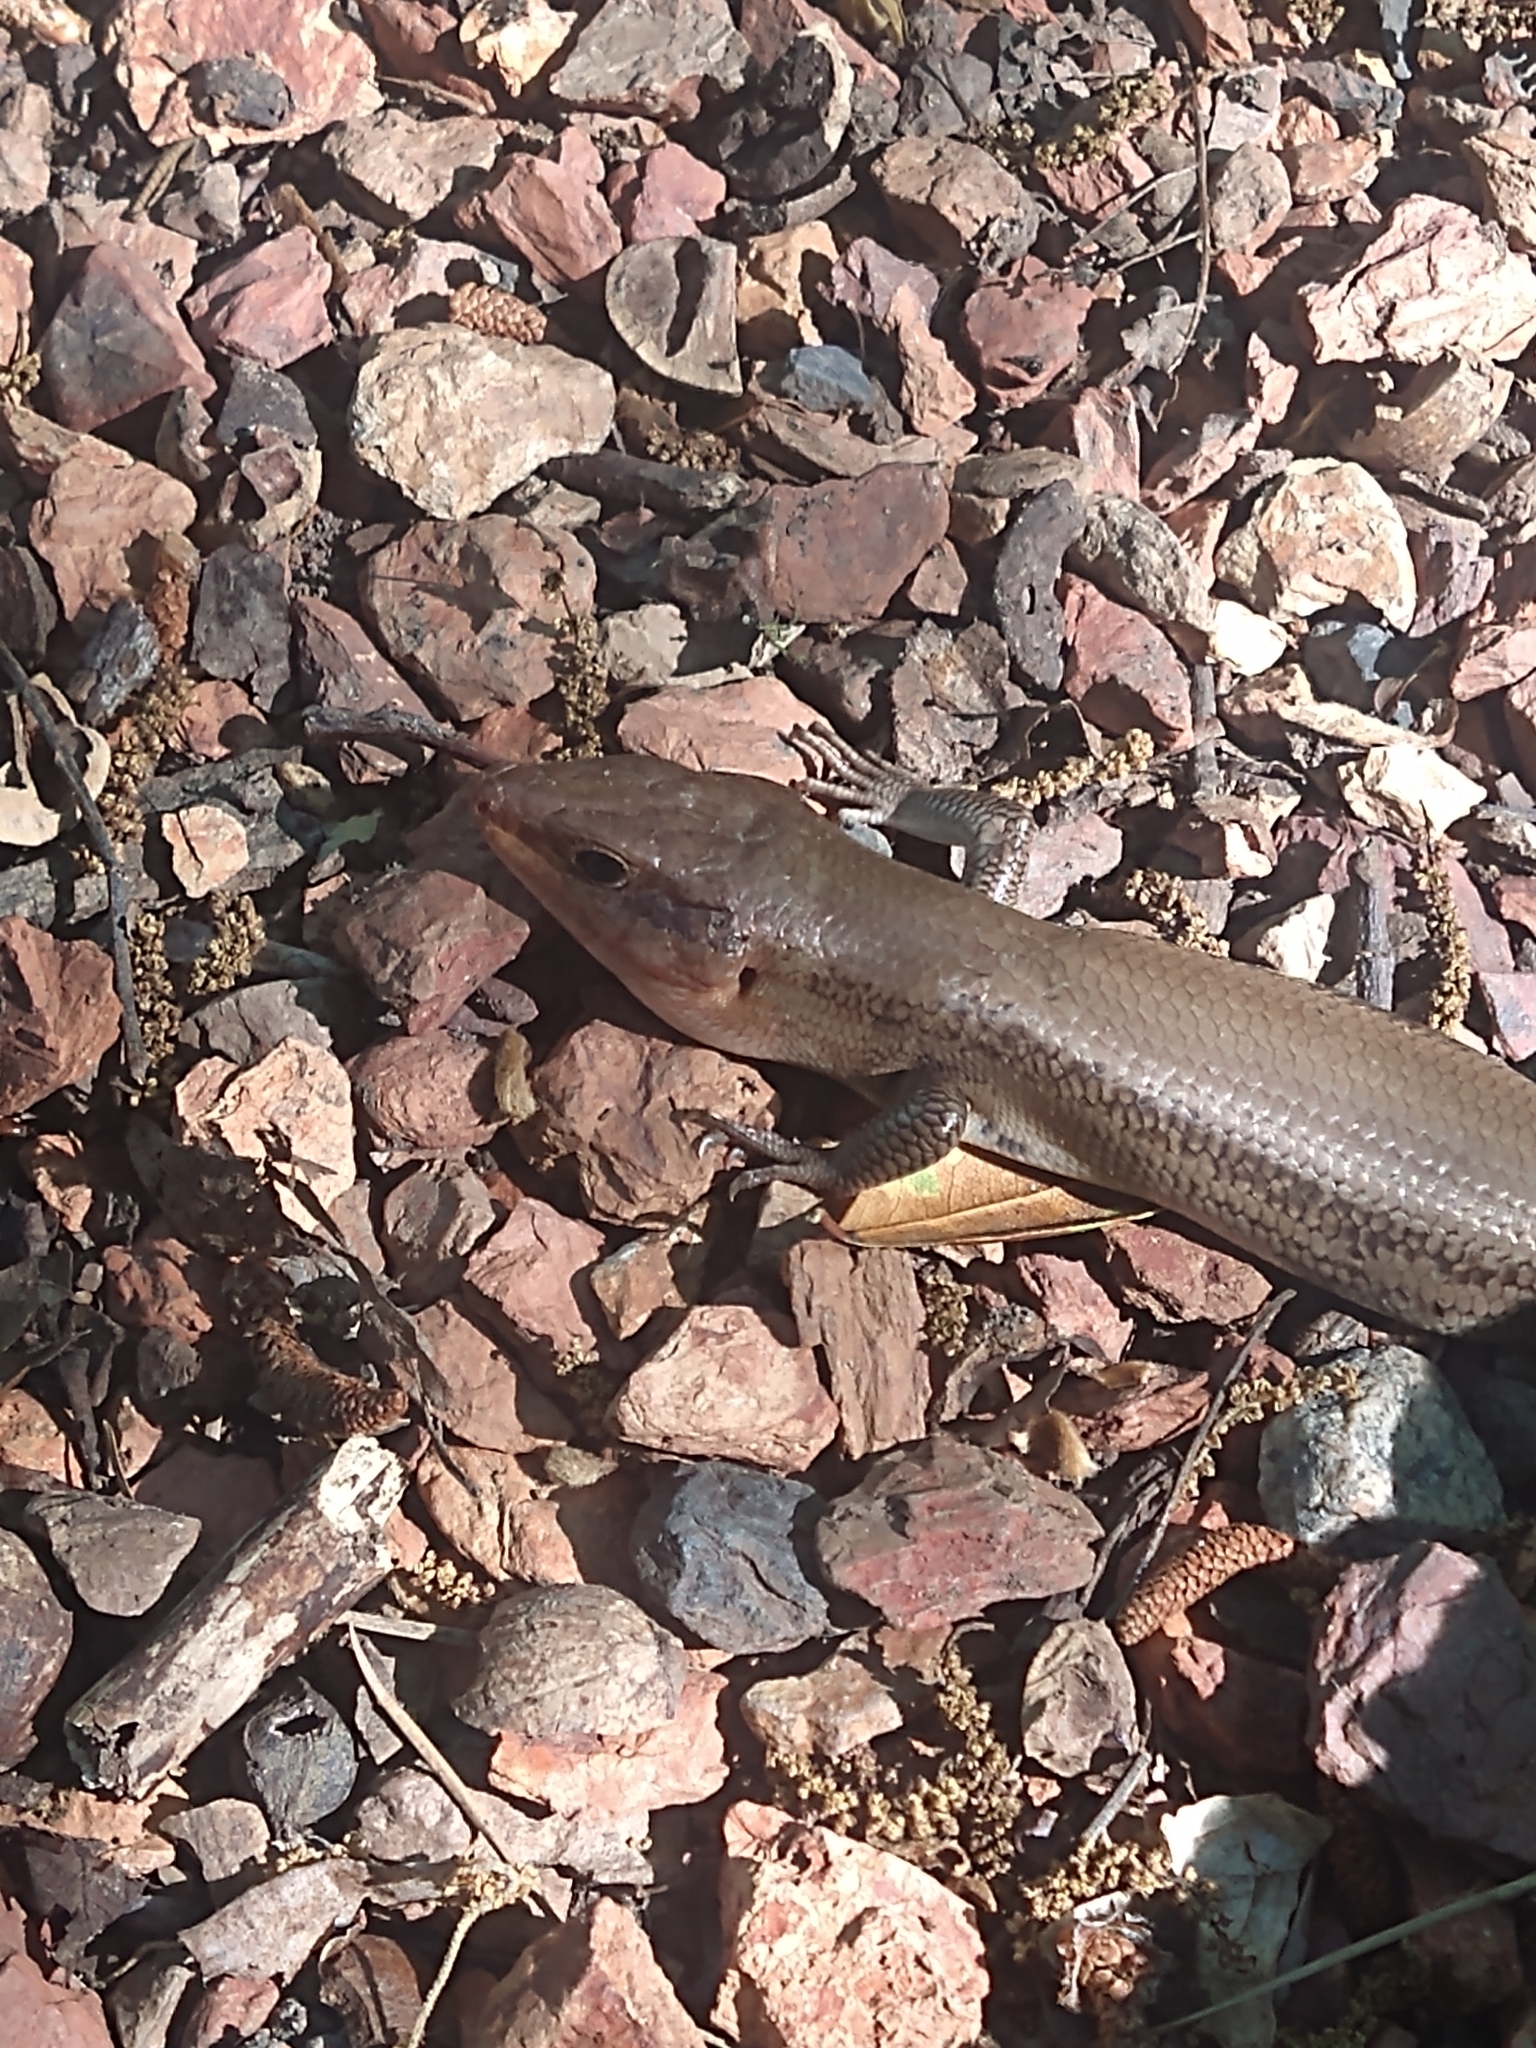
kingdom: Animalia
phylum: Chordata
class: Squamata
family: Scincidae
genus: Plestiodon
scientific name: Plestiodon laticeps
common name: Broadhead skink
